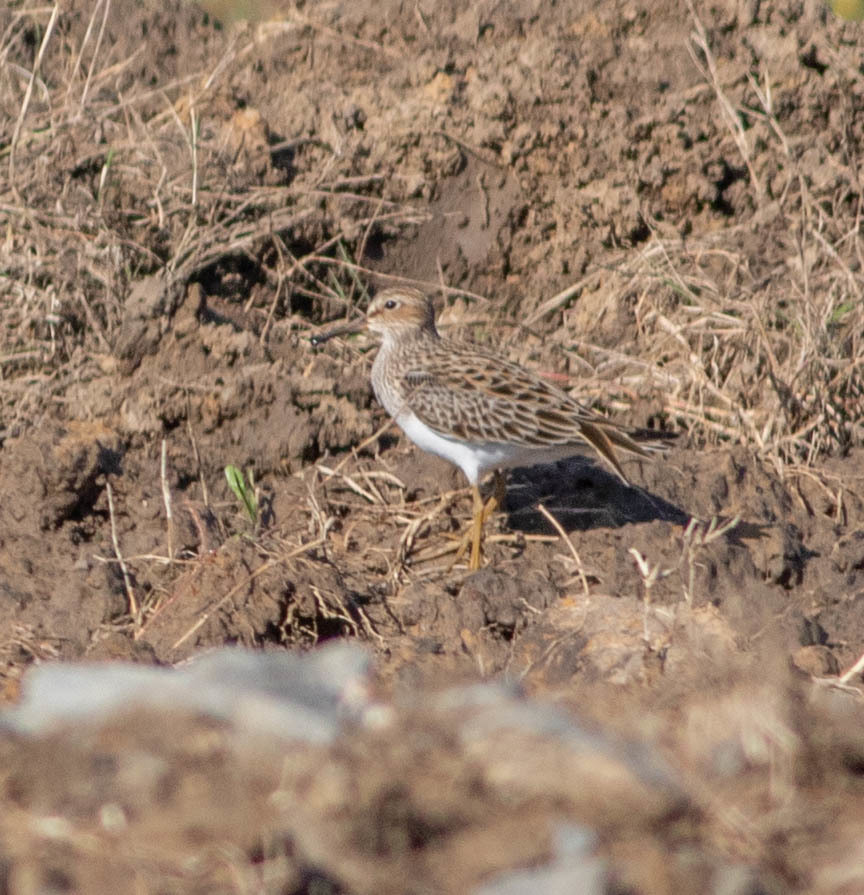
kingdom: Animalia
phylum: Chordata
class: Aves
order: Charadriiformes
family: Scolopacidae
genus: Calidris
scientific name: Calidris melanotos
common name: Pectoral sandpiper
